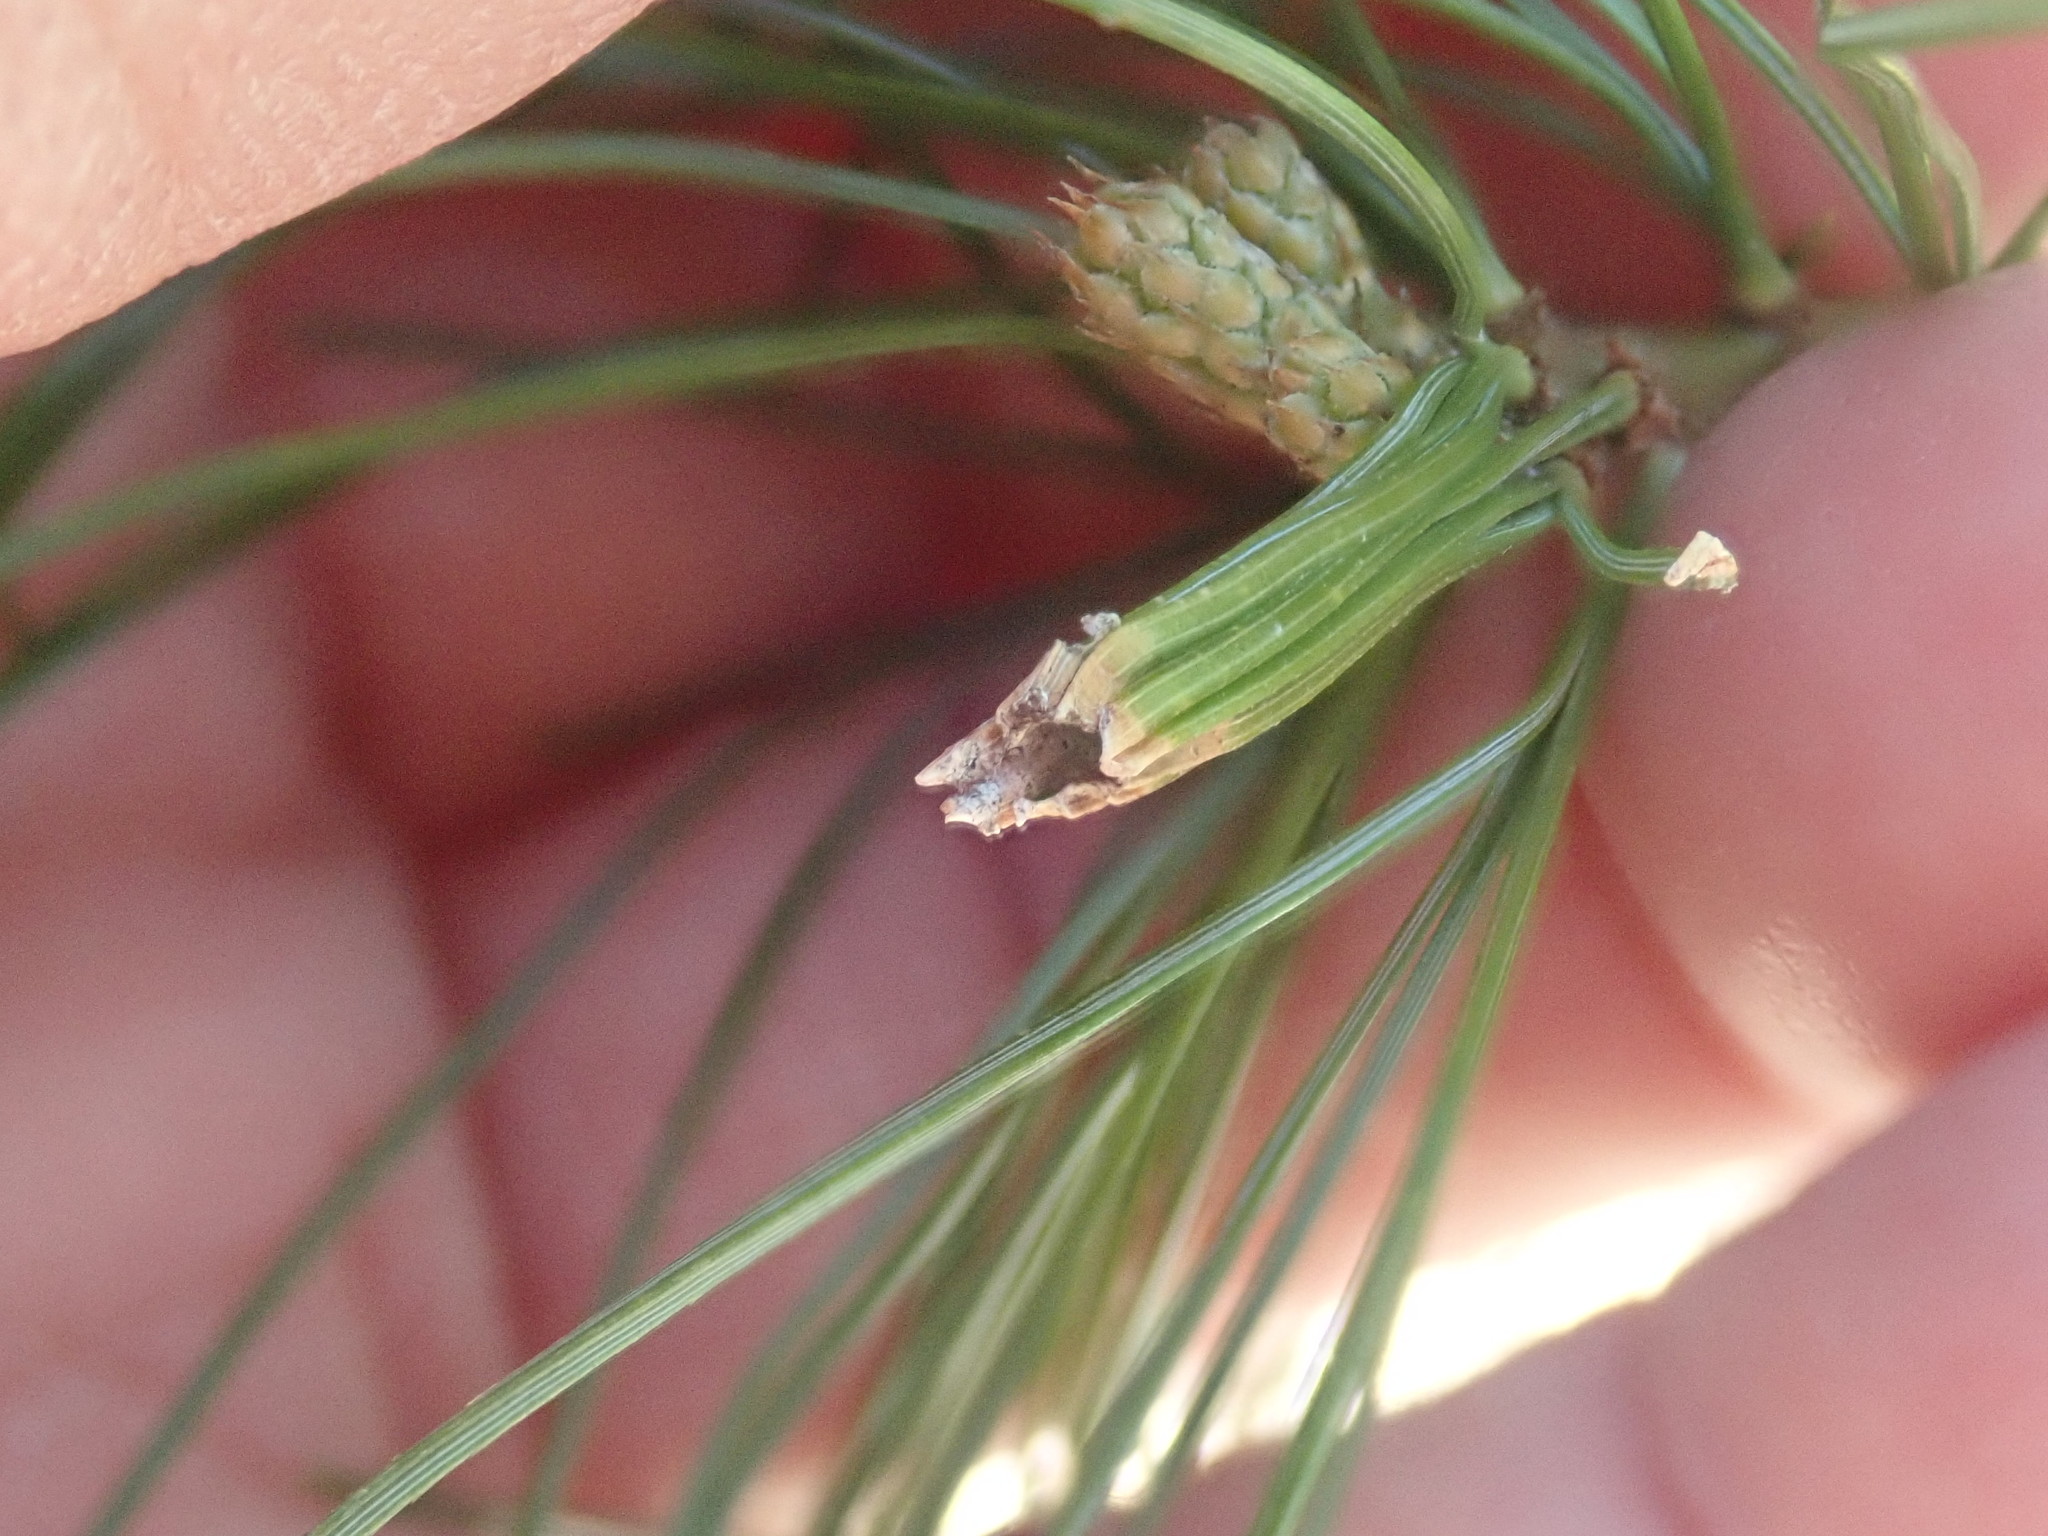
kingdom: Animalia
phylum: Arthropoda
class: Insecta
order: Lepidoptera
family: Tortricidae
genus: Argyrotaenia
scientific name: Argyrotaenia pinatubana
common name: Pine tube moth
